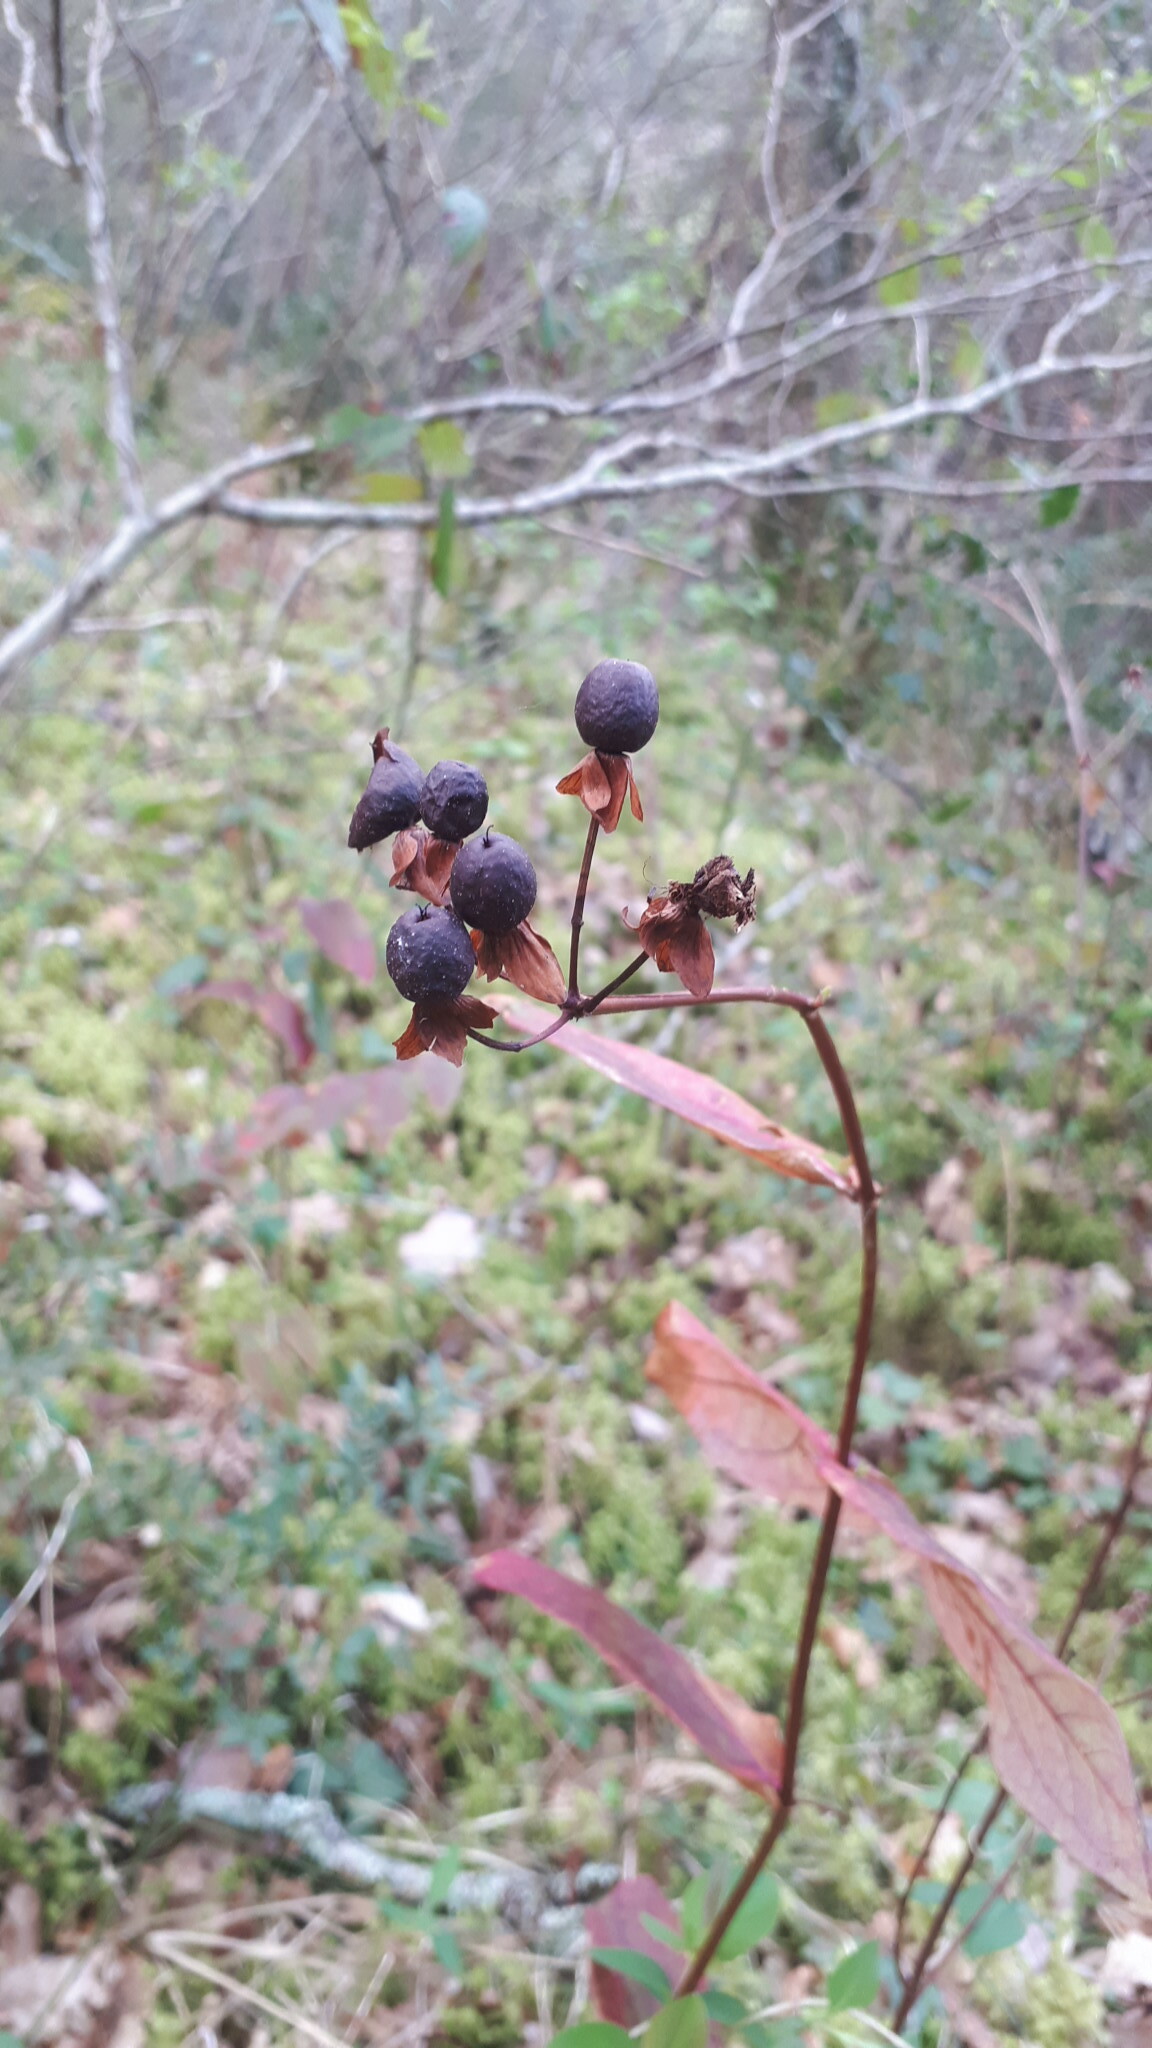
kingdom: Plantae
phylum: Tracheophyta
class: Magnoliopsida
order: Malpighiales
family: Hypericaceae
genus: Hypericum
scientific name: Hypericum androsaemum
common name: Sweet-amber
